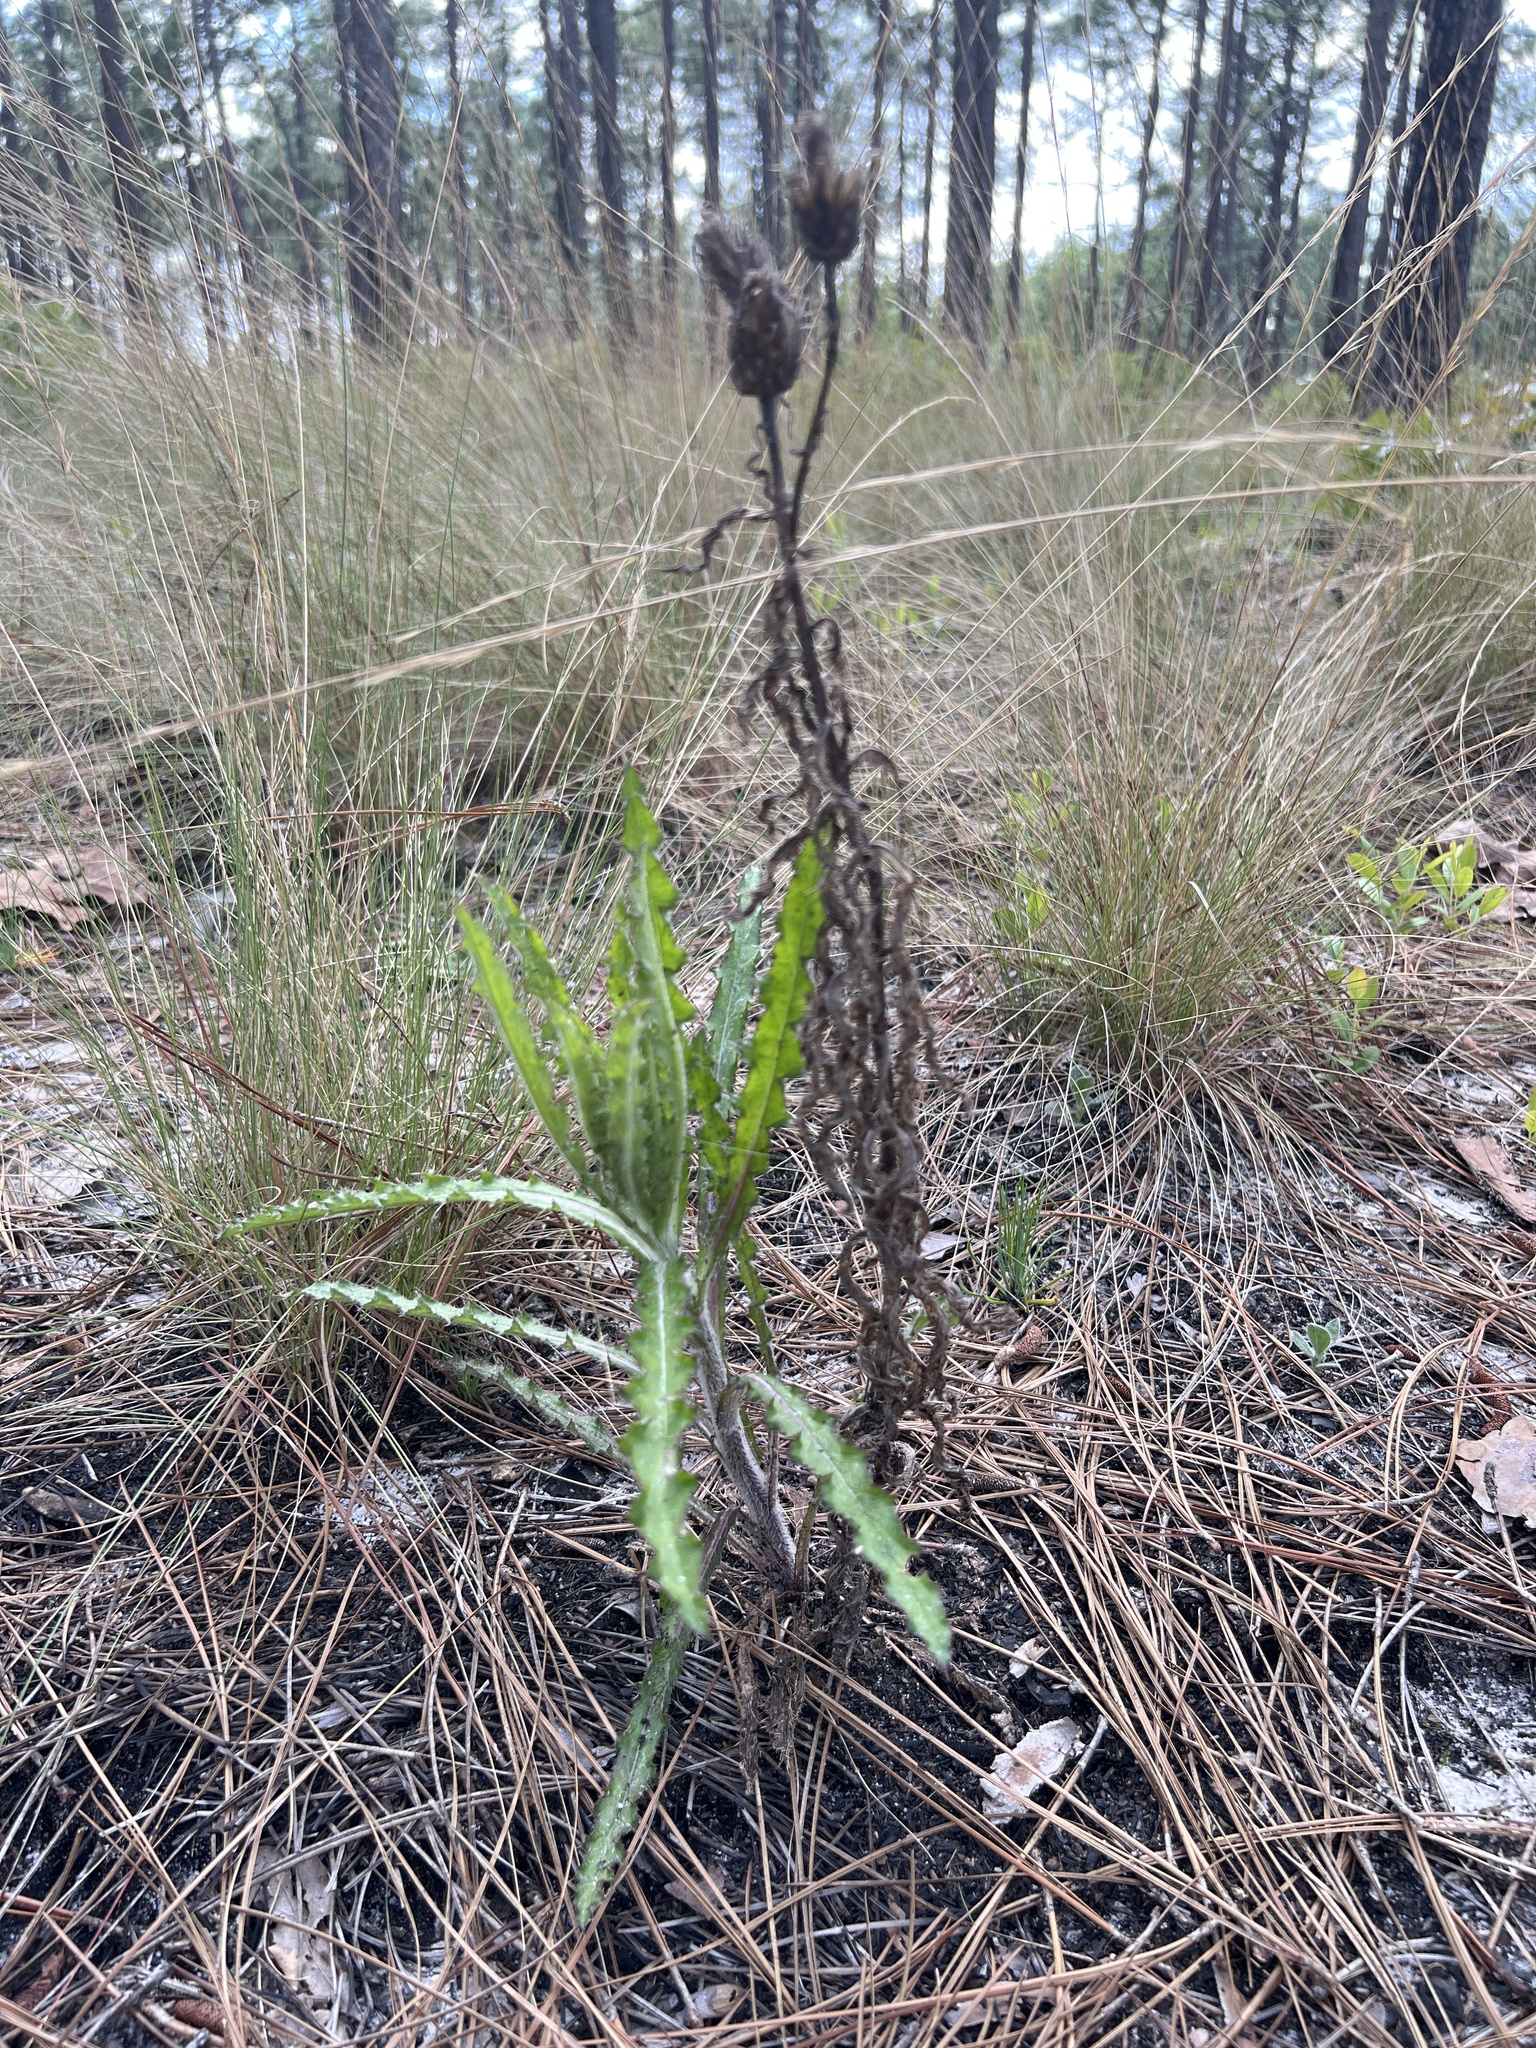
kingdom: Plantae
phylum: Tracheophyta
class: Magnoliopsida
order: Asterales
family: Asteraceae
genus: Cirsium
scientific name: Cirsium repandum
